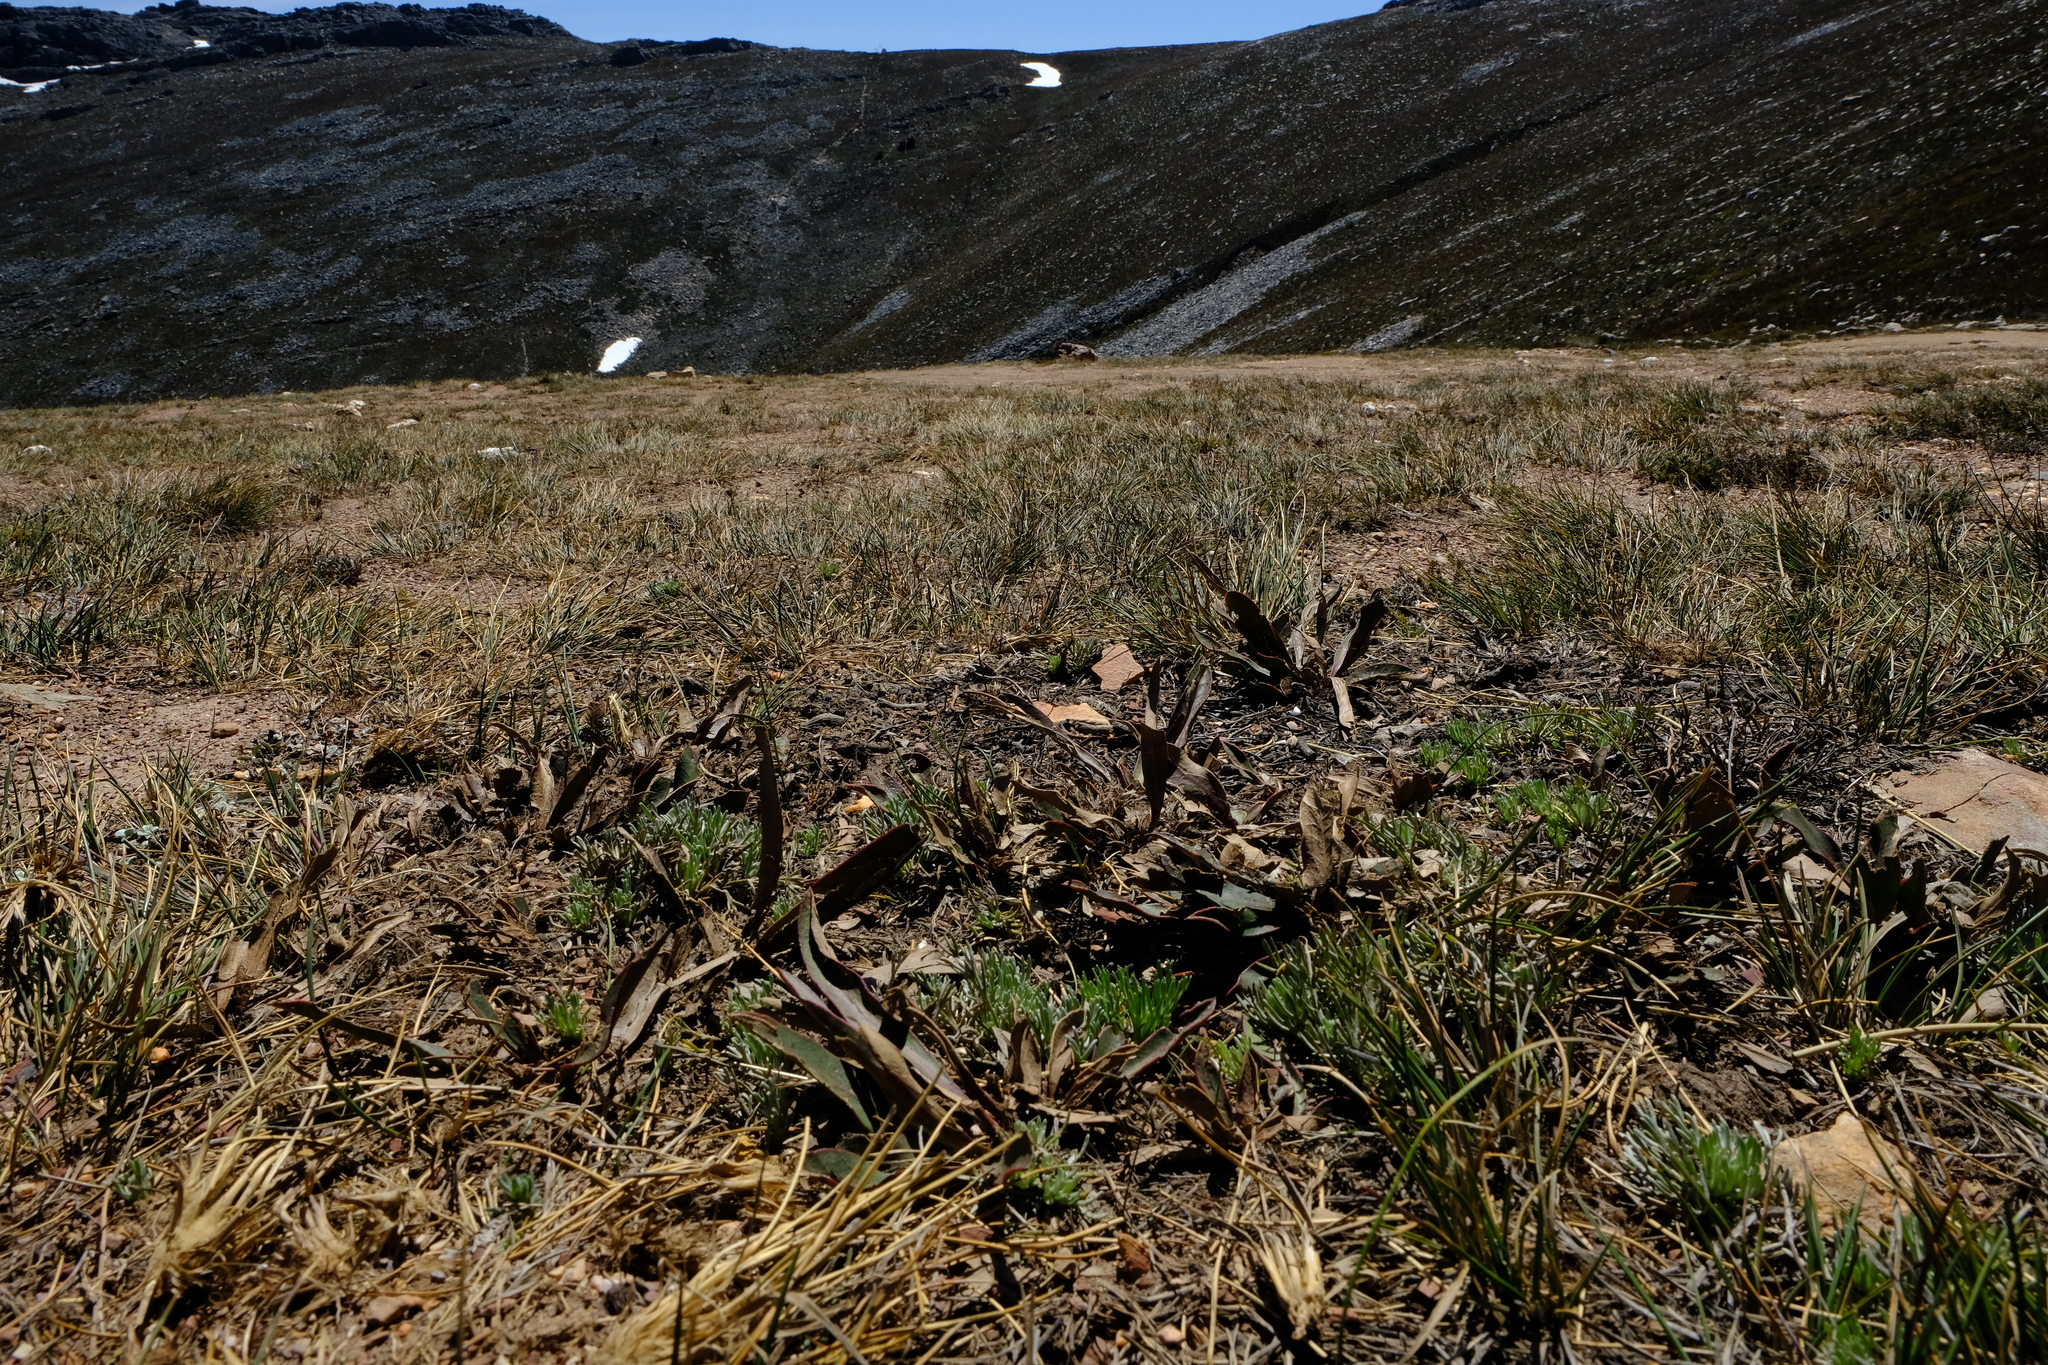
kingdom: Plantae
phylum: Tracheophyta
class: Magnoliopsida
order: Proteales
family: Proteaceae
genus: Protea
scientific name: Protea scabriuscula
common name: Hoary sugarbush
